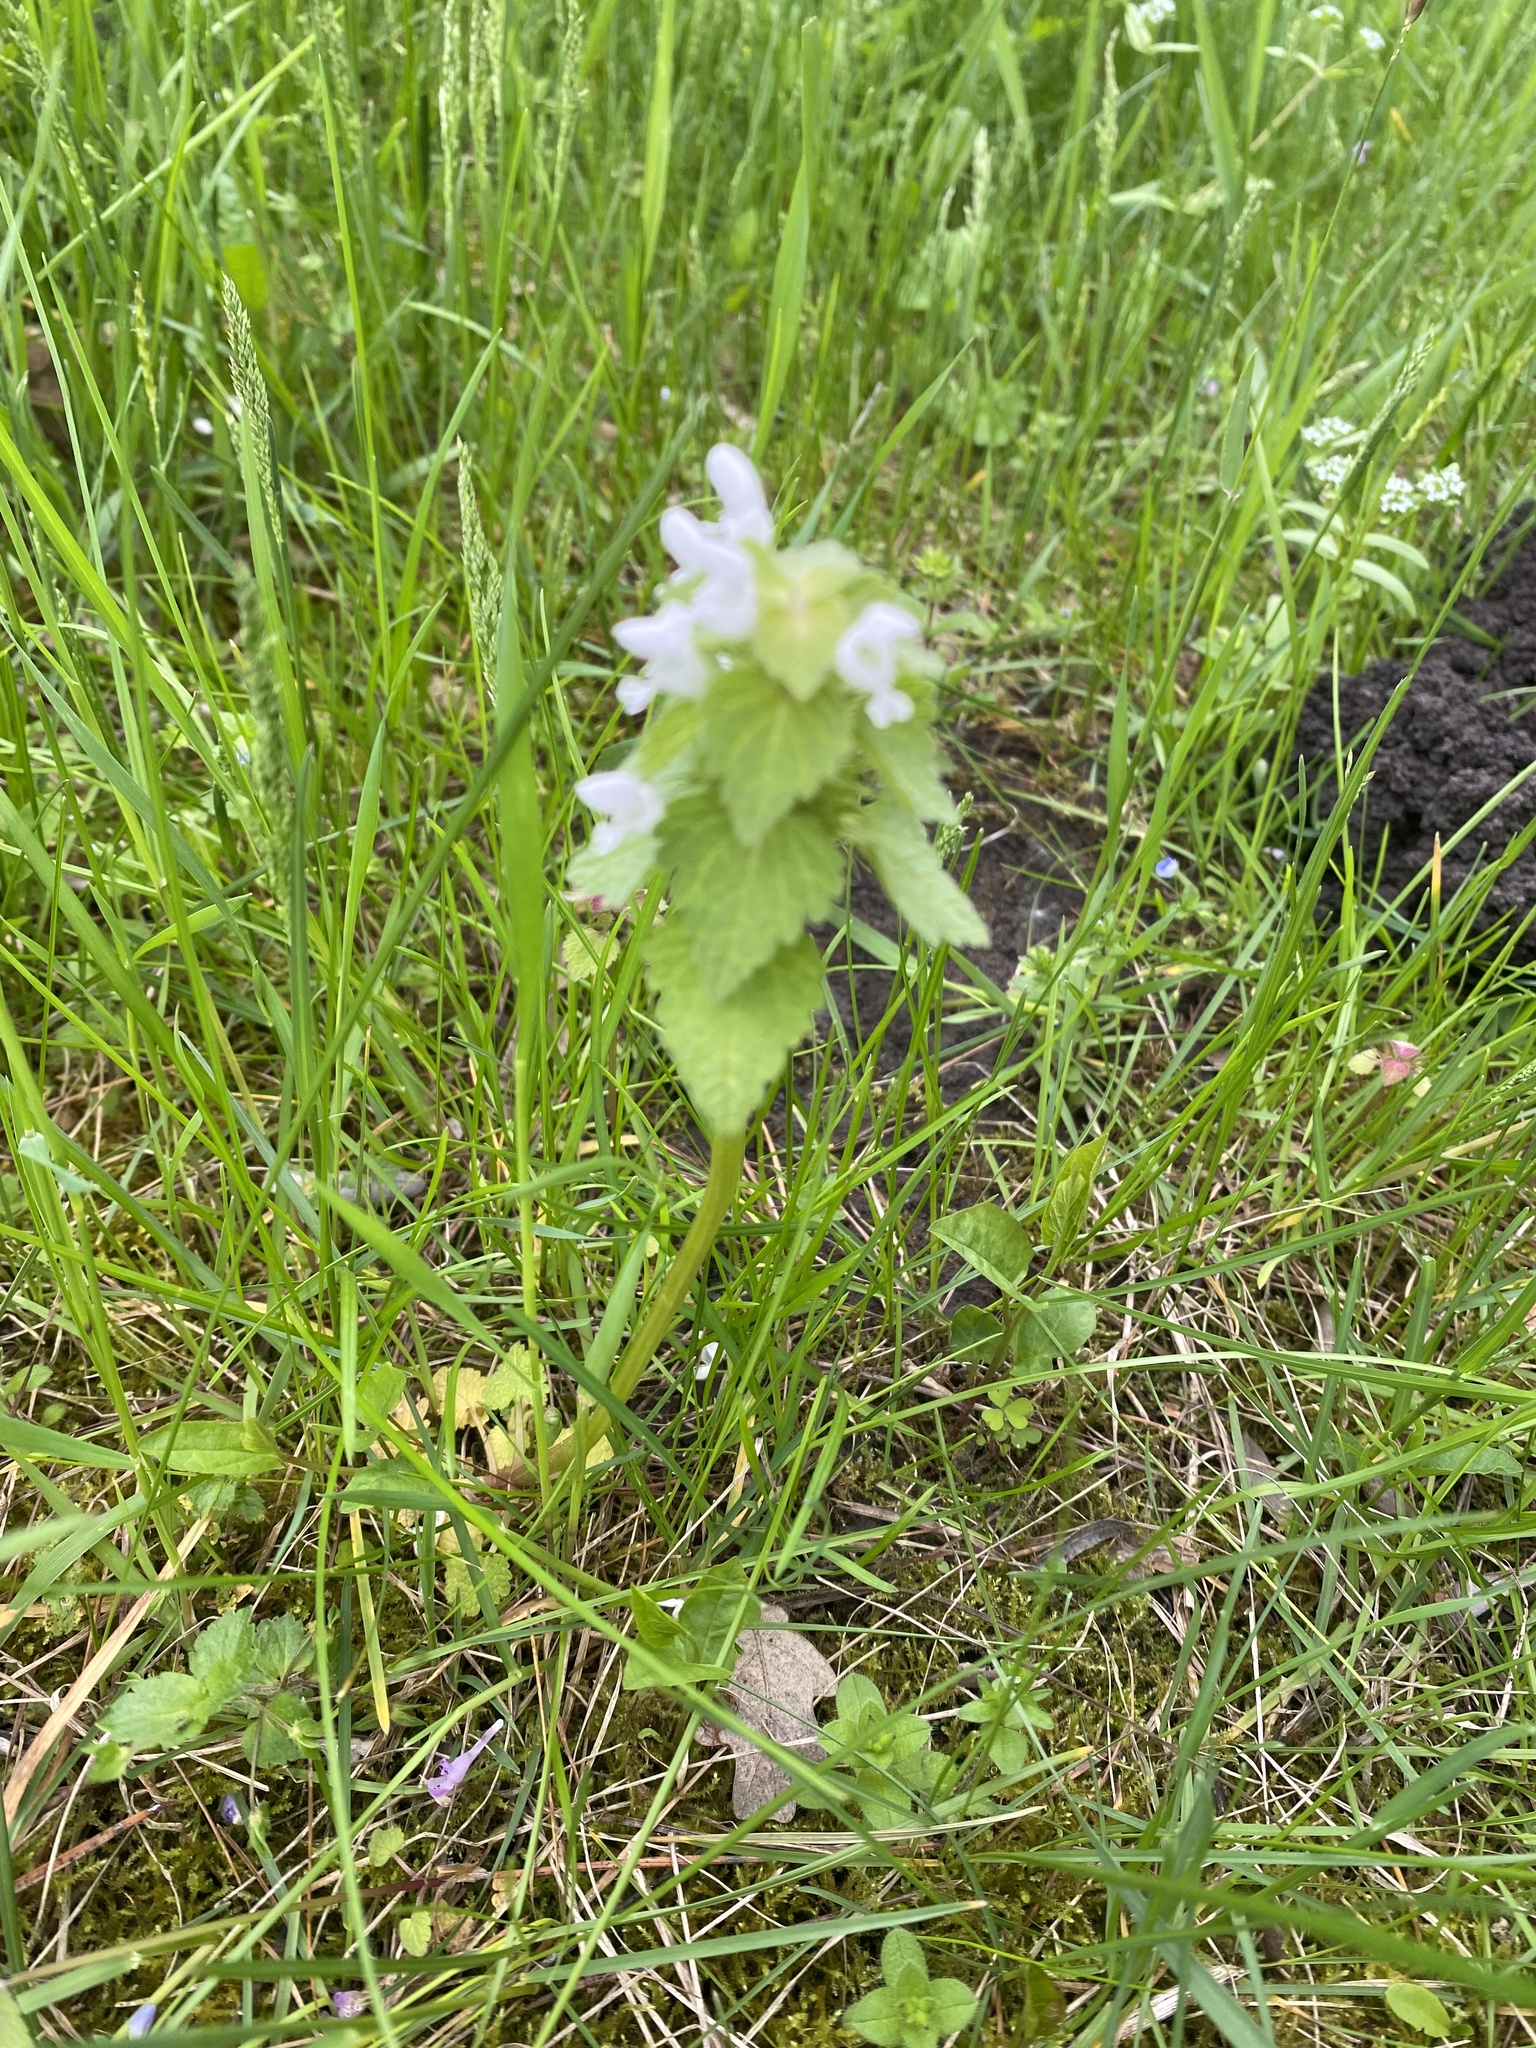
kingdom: Plantae
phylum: Tracheophyta
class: Magnoliopsida
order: Lamiales
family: Lamiaceae
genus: Lamium
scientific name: Lamium purpureum
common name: Red dead-nettle
